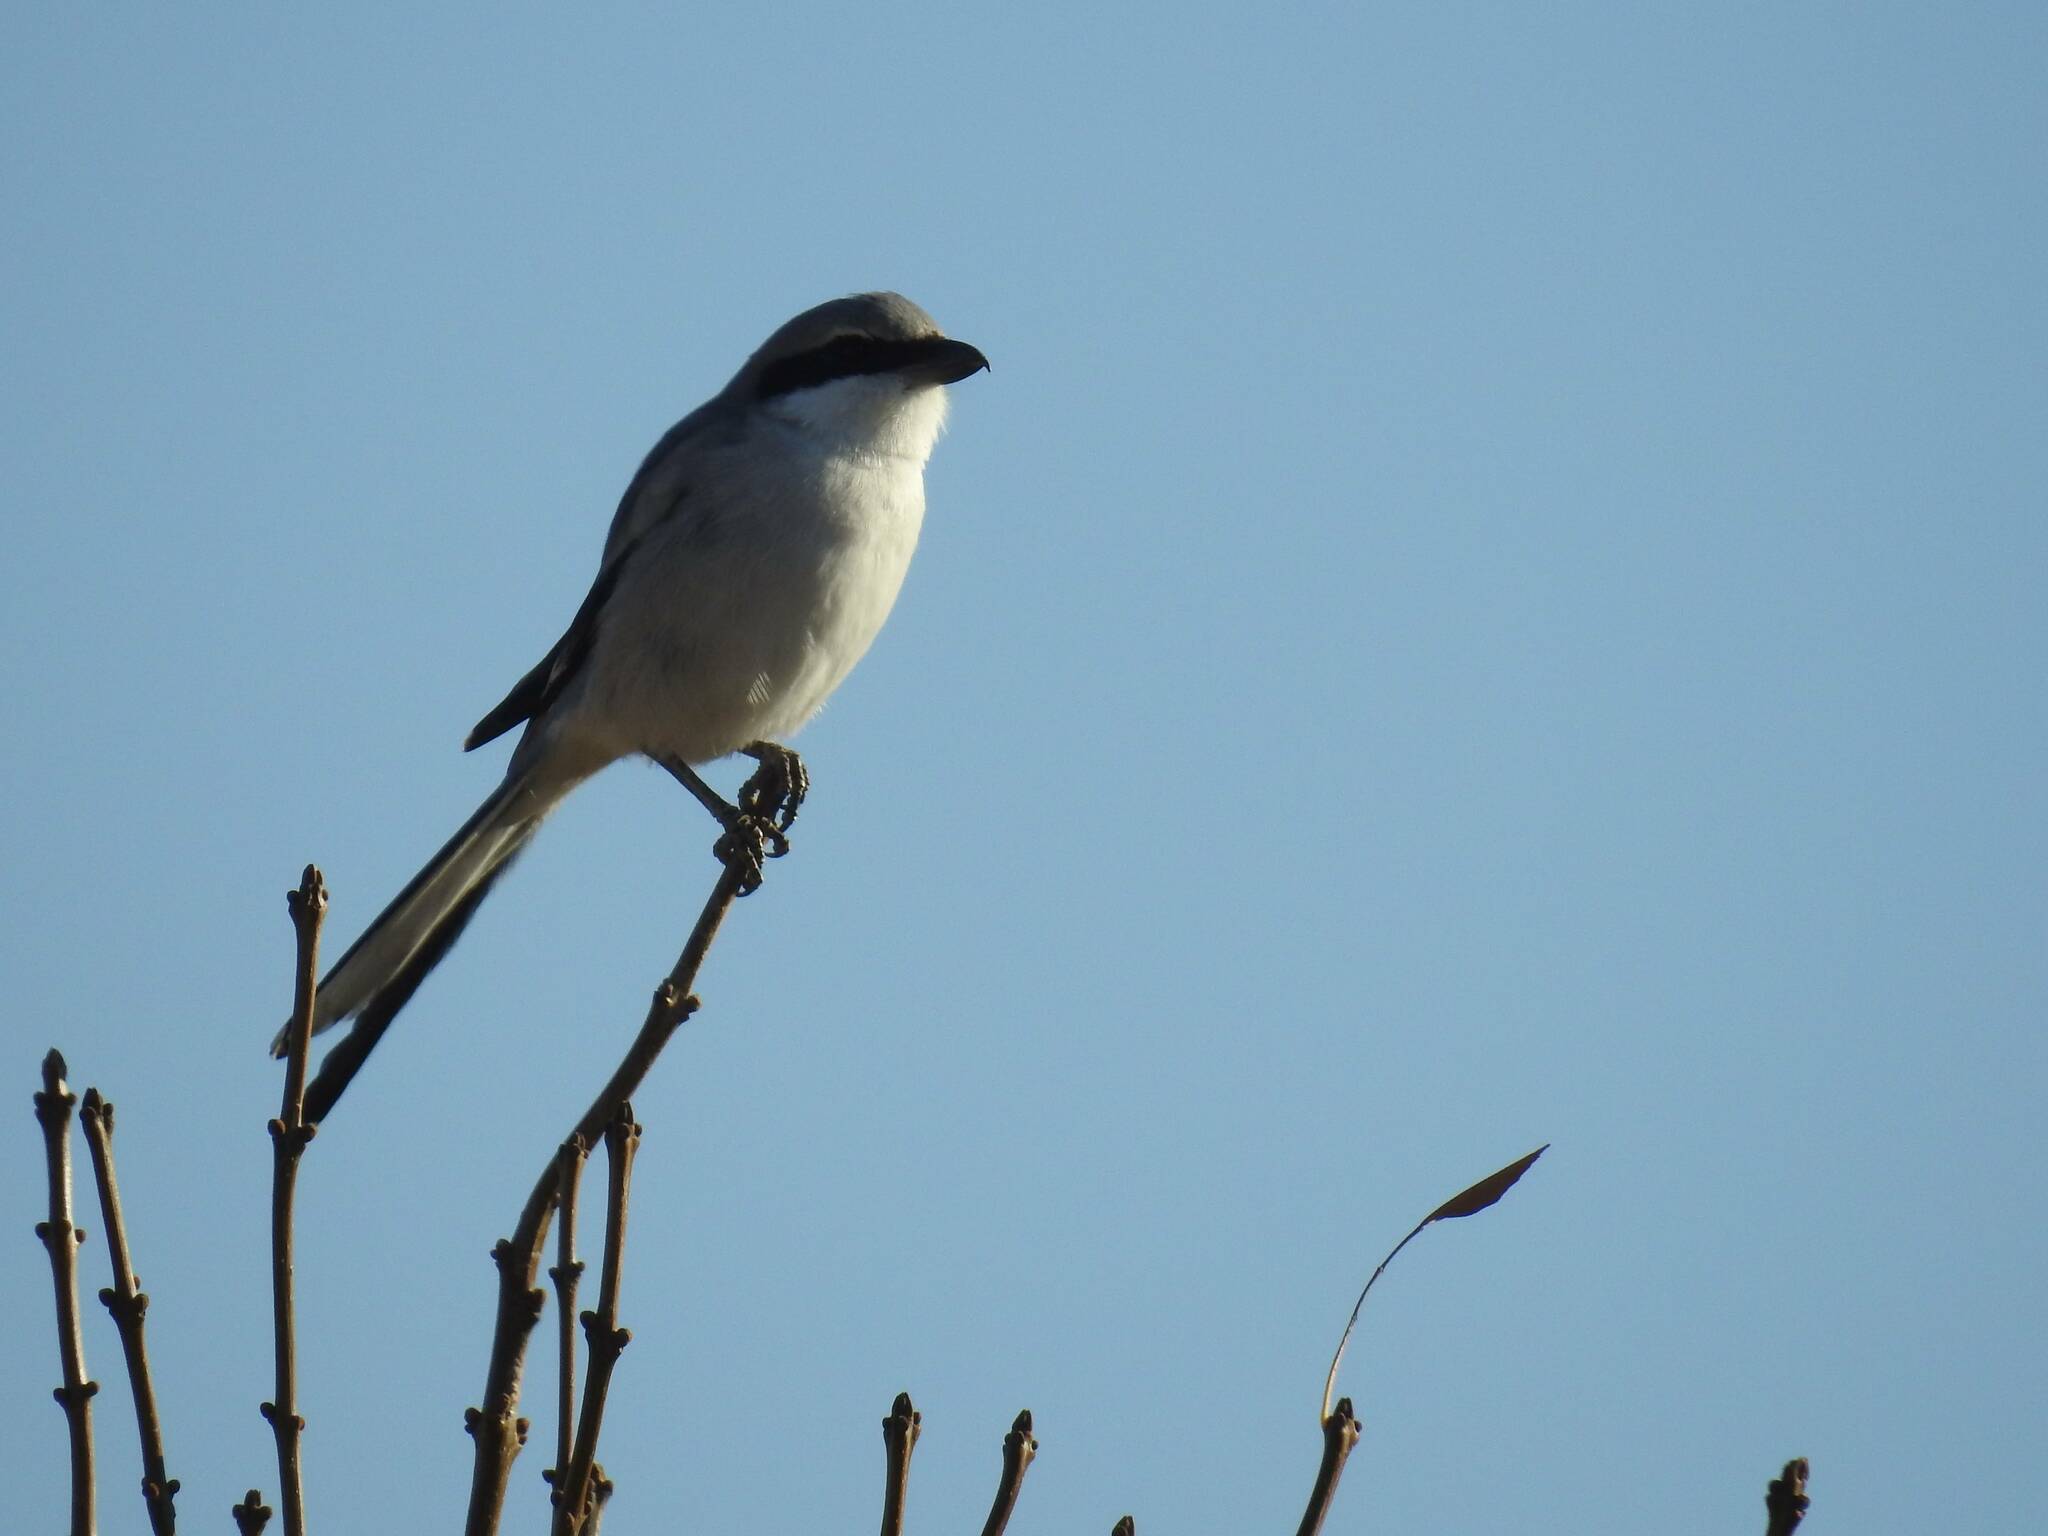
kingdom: Animalia
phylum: Chordata
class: Aves
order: Passeriformes
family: Laniidae
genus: Lanius
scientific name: Lanius excubitor
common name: Great grey shrike
